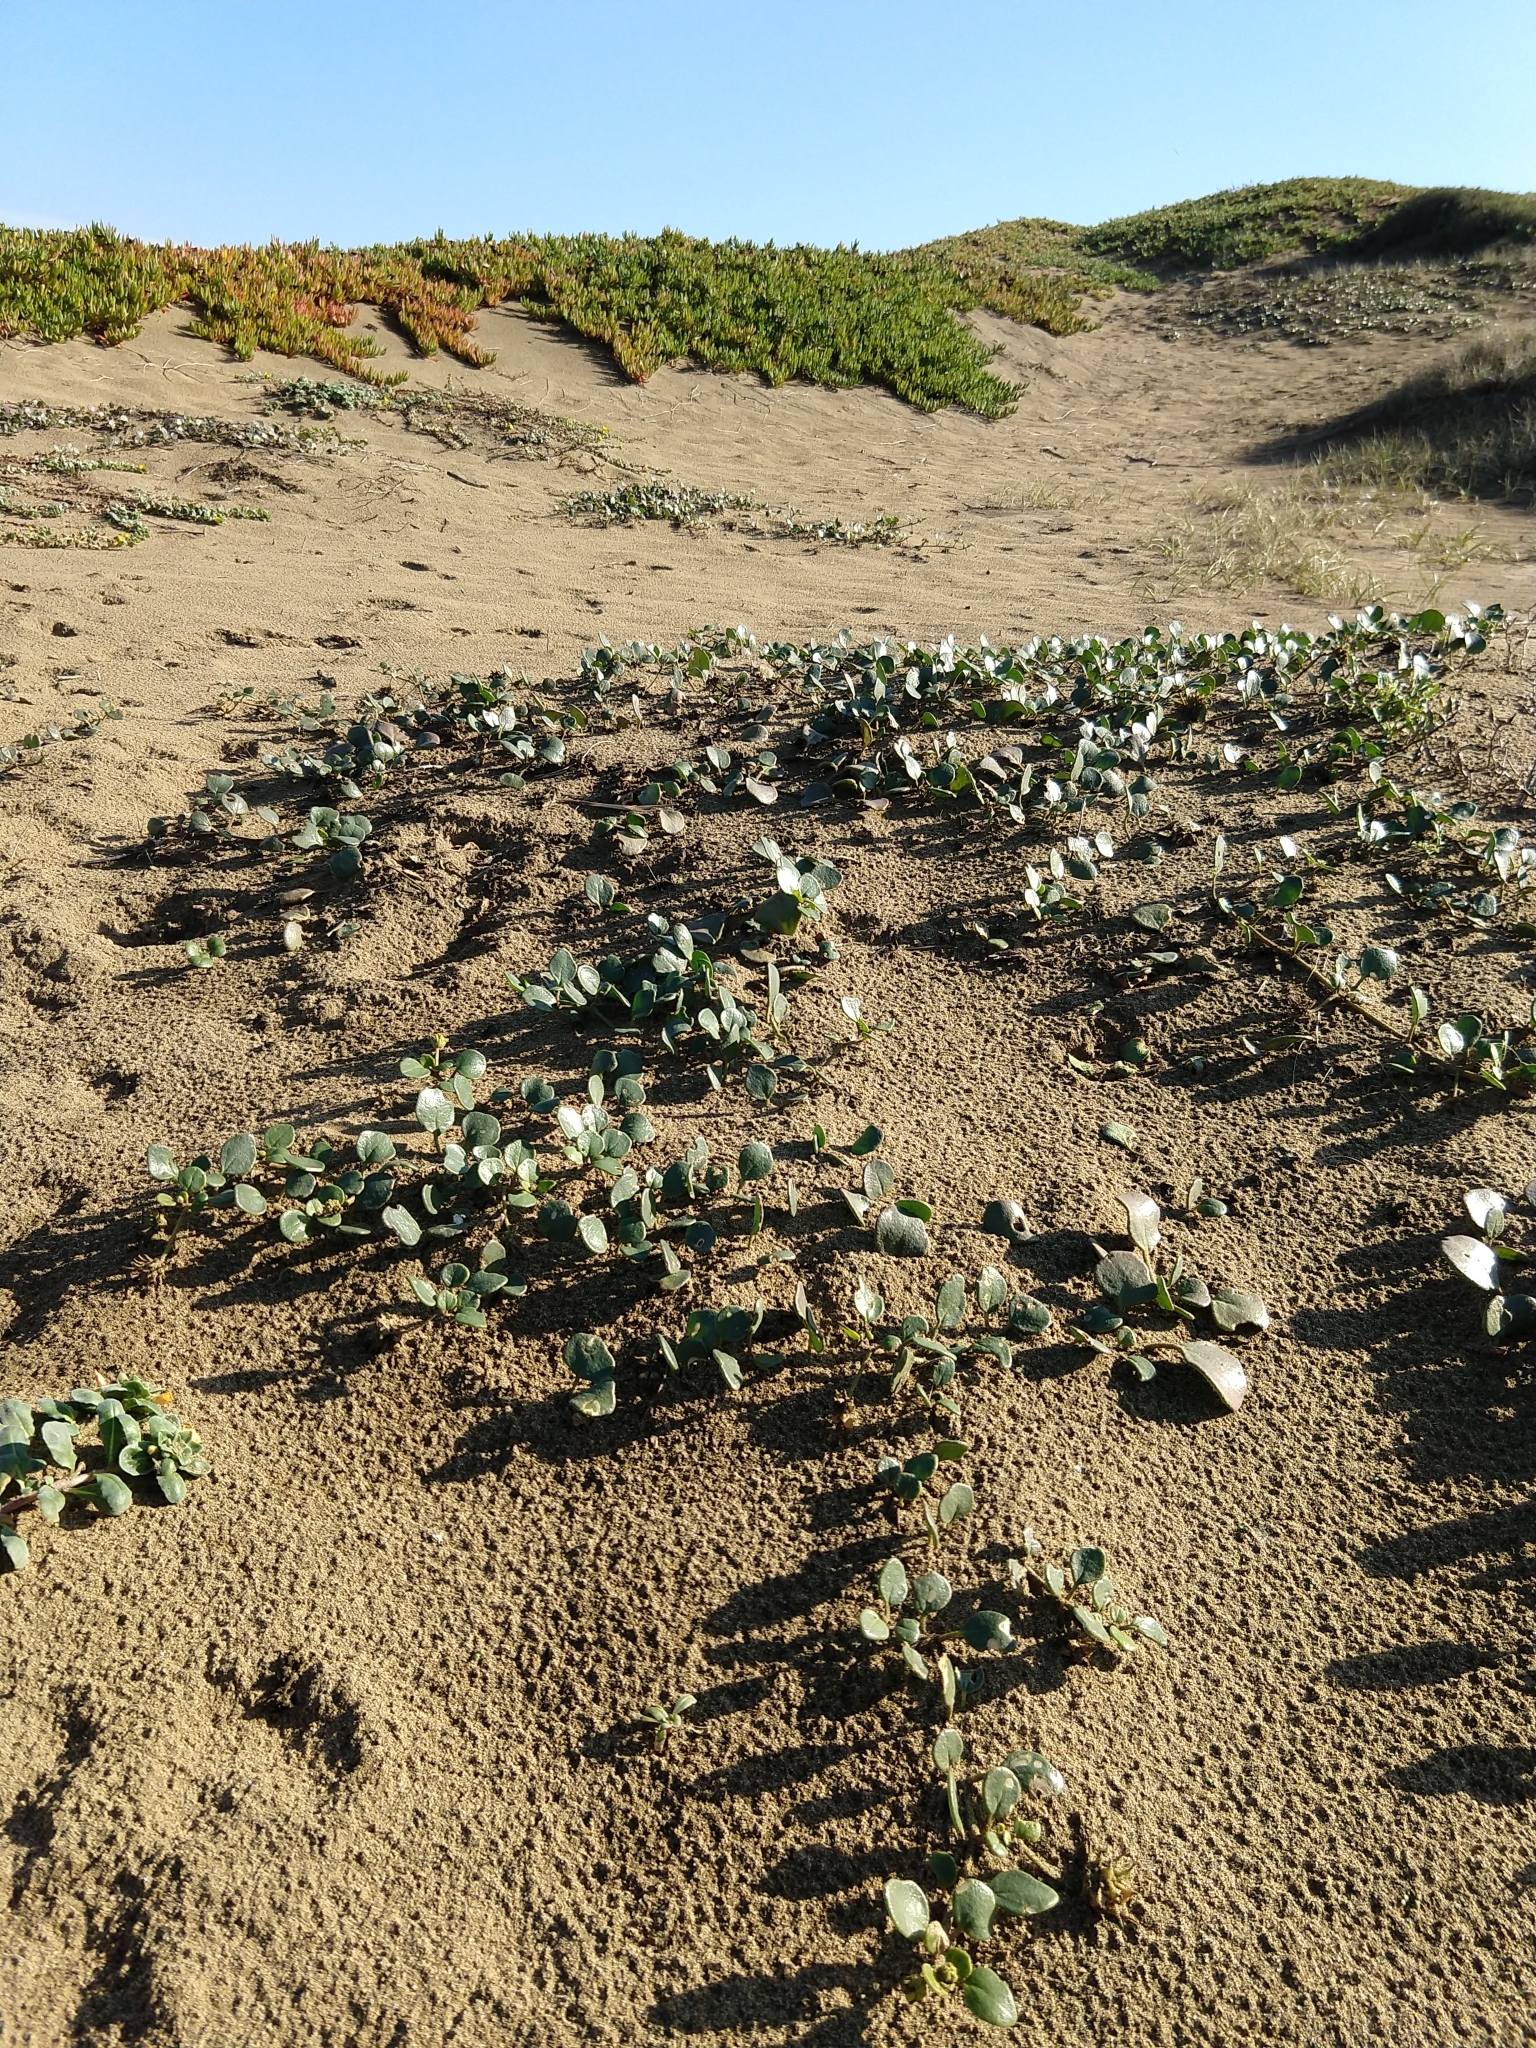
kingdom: Plantae
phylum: Tracheophyta
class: Magnoliopsida
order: Caryophyllales
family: Nyctaginaceae
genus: Abronia
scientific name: Abronia latifolia
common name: Yellow sand-verbena
